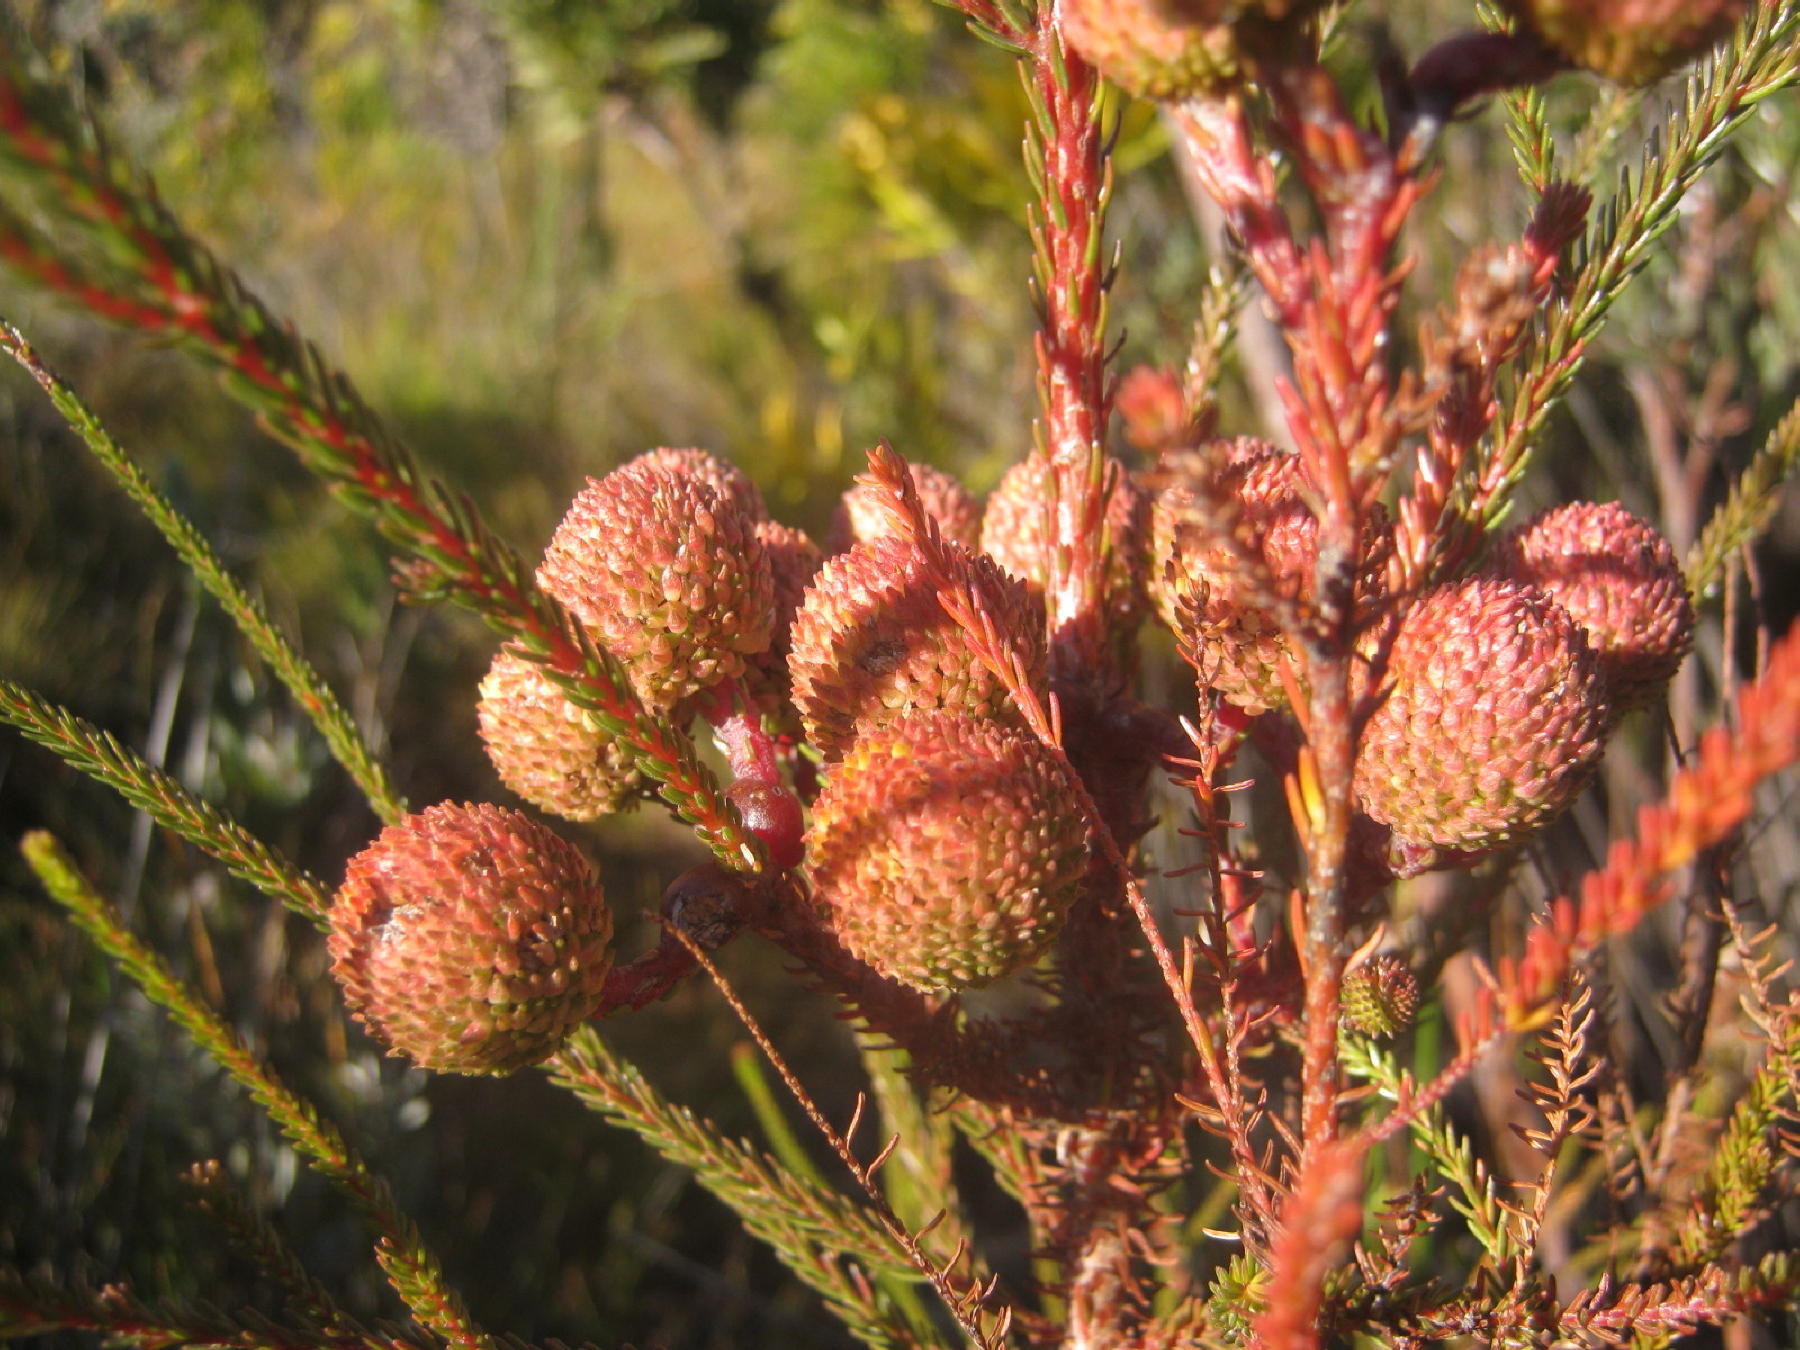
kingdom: Plantae
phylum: Tracheophyta
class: Magnoliopsida
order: Bruniales
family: Bruniaceae
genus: Berzelia
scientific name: Berzelia intermedia
